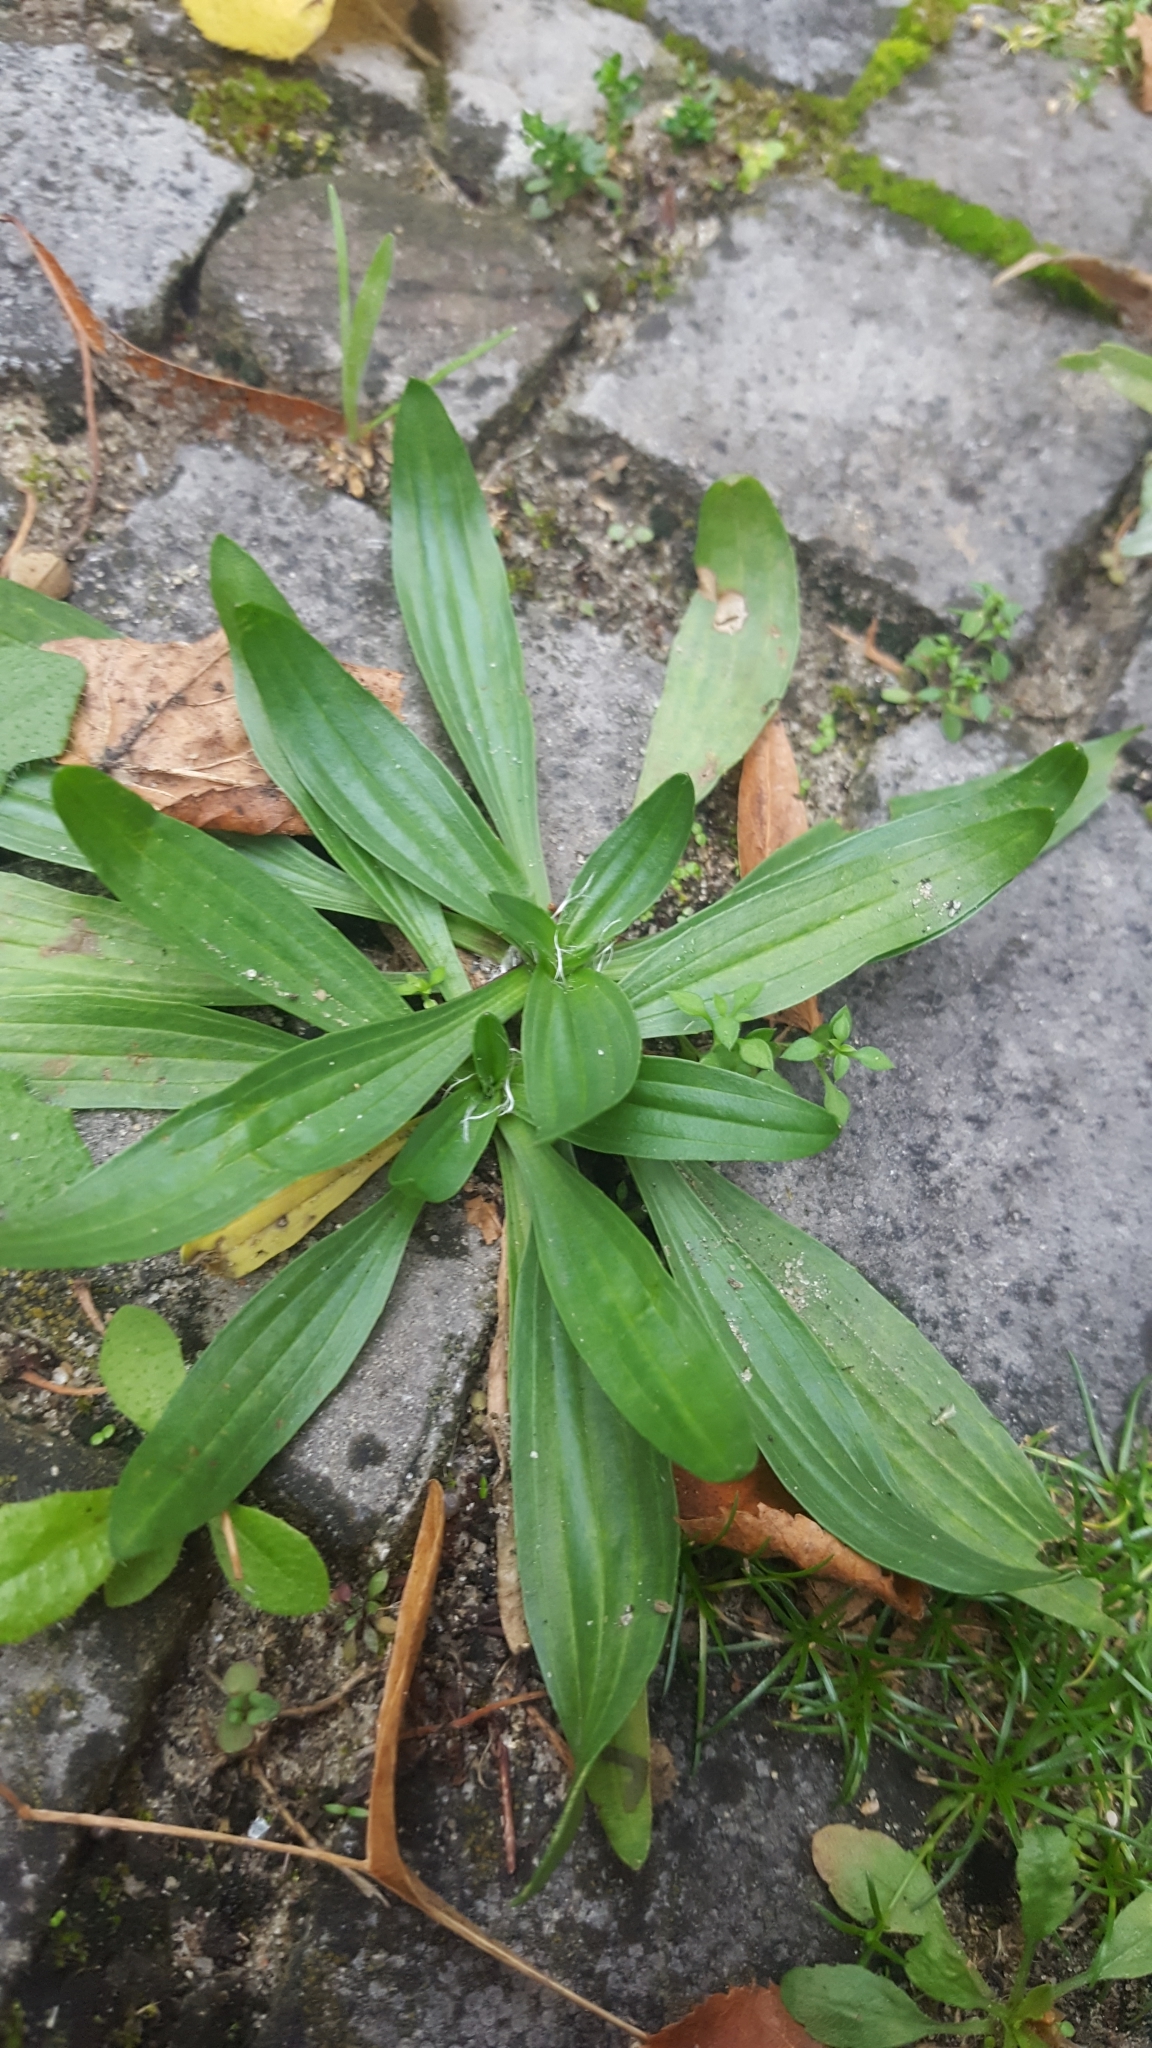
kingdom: Plantae
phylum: Tracheophyta
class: Magnoliopsida
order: Lamiales
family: Plantaginaceae
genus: Plantago
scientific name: Plantago lanceolata
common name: Ribwort plantain
